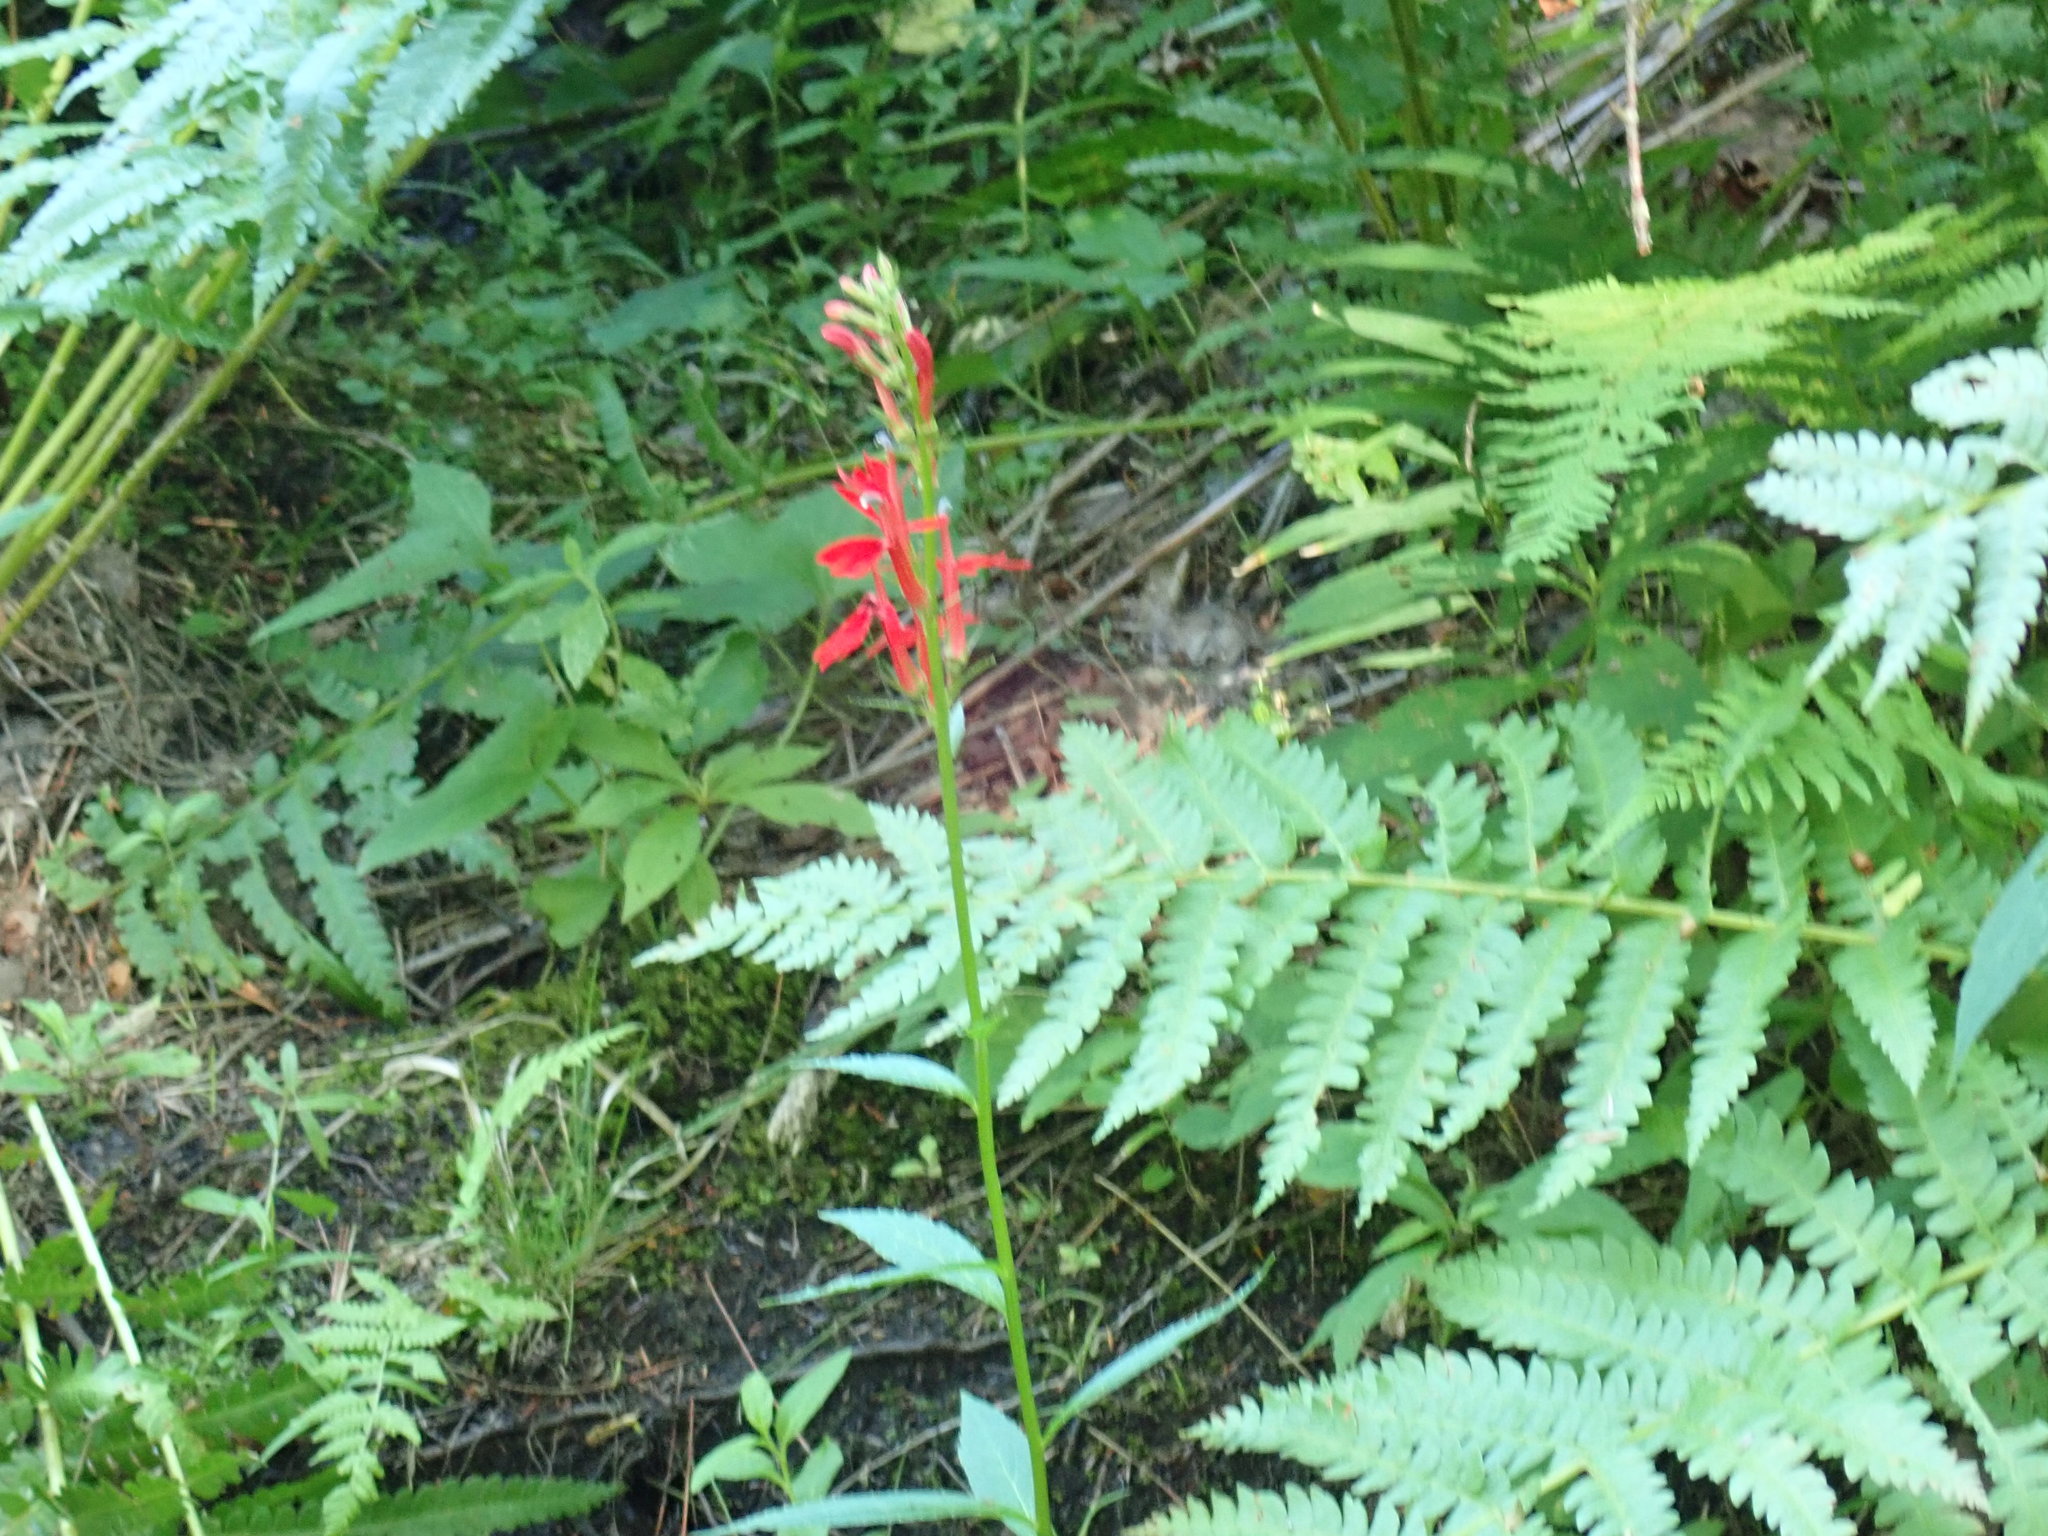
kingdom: Plantae
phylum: Tracheophyta
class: Magnoliopsida
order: Asterales
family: Campanulaceae
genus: Lobelia
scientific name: Lobelia cardinalis
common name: Cardinal flower
